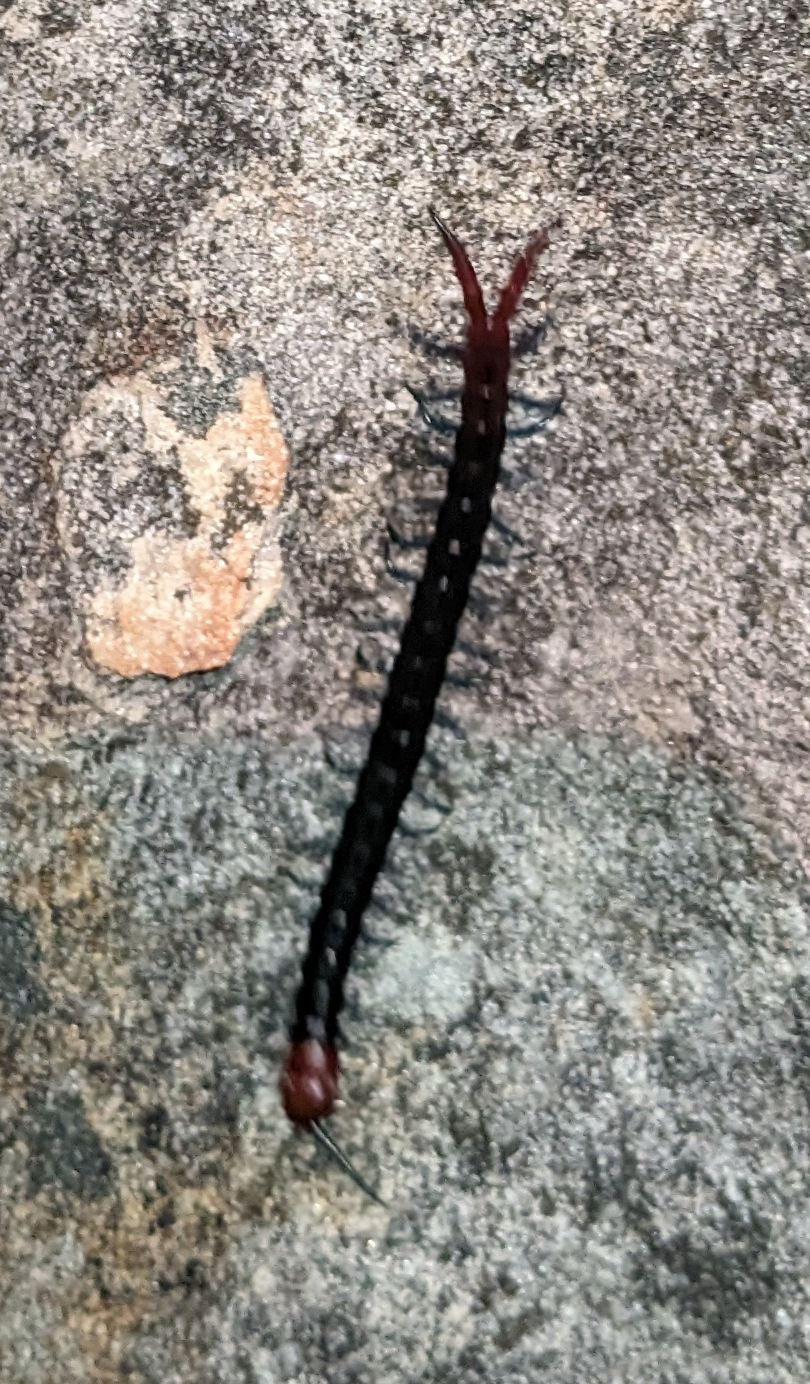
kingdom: Animalia
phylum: Arthropoda
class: Chilopoda
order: Scolopendromorpha
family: Scolopendridae
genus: Cormocephalus
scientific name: Cormocephalus nitidus
